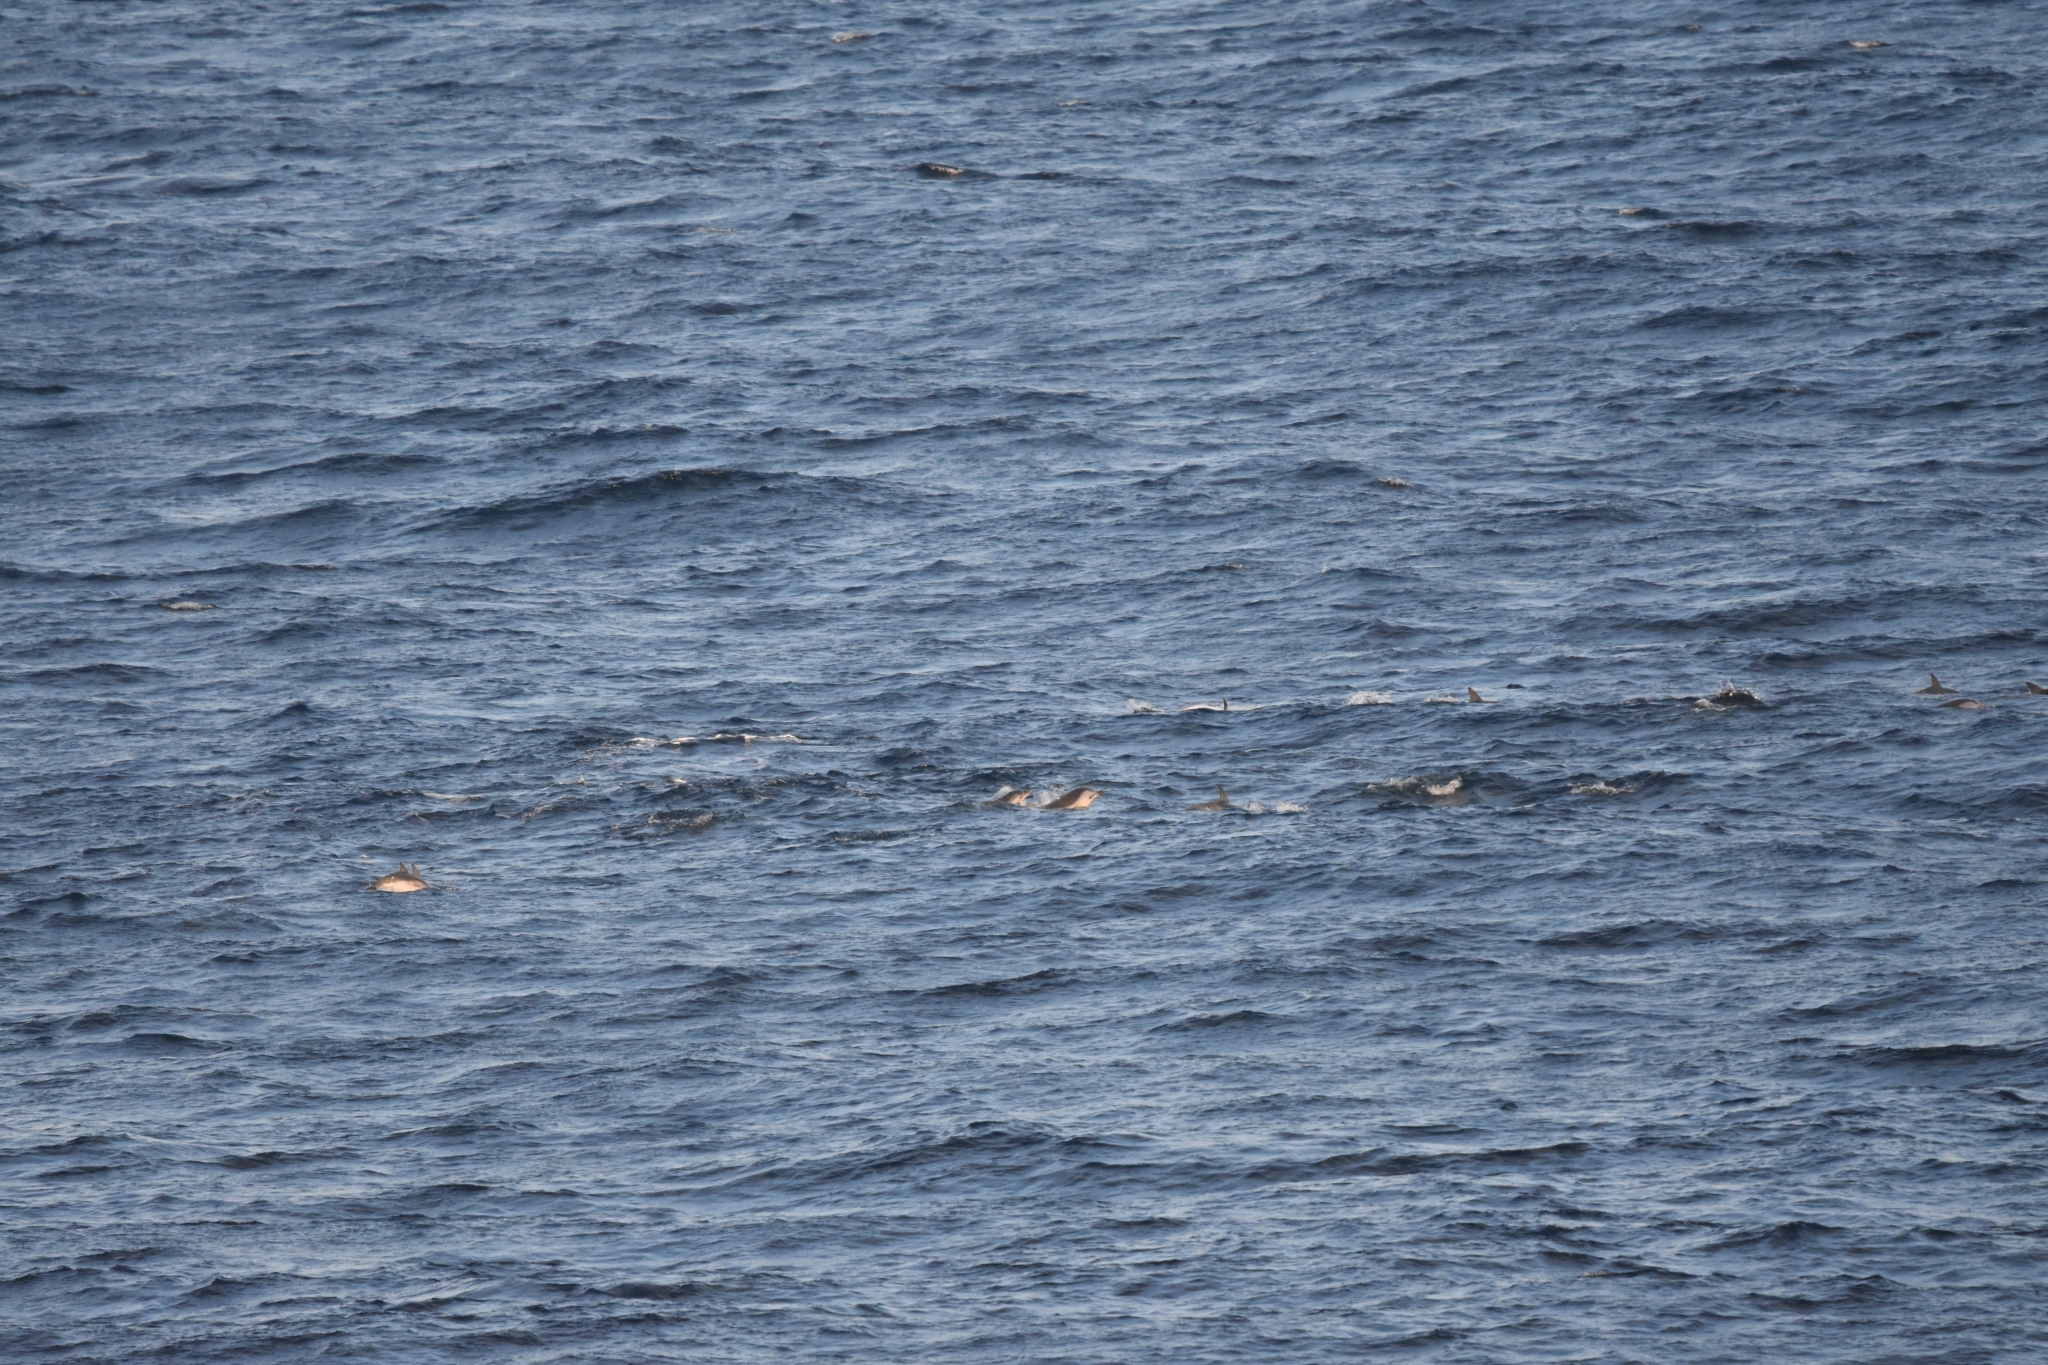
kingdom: Animalia
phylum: Chordata
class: Mammalia
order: Cetacea
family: Delphinidae
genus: Stenella
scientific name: Stenella coeruleoalba
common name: Striped dolphin
